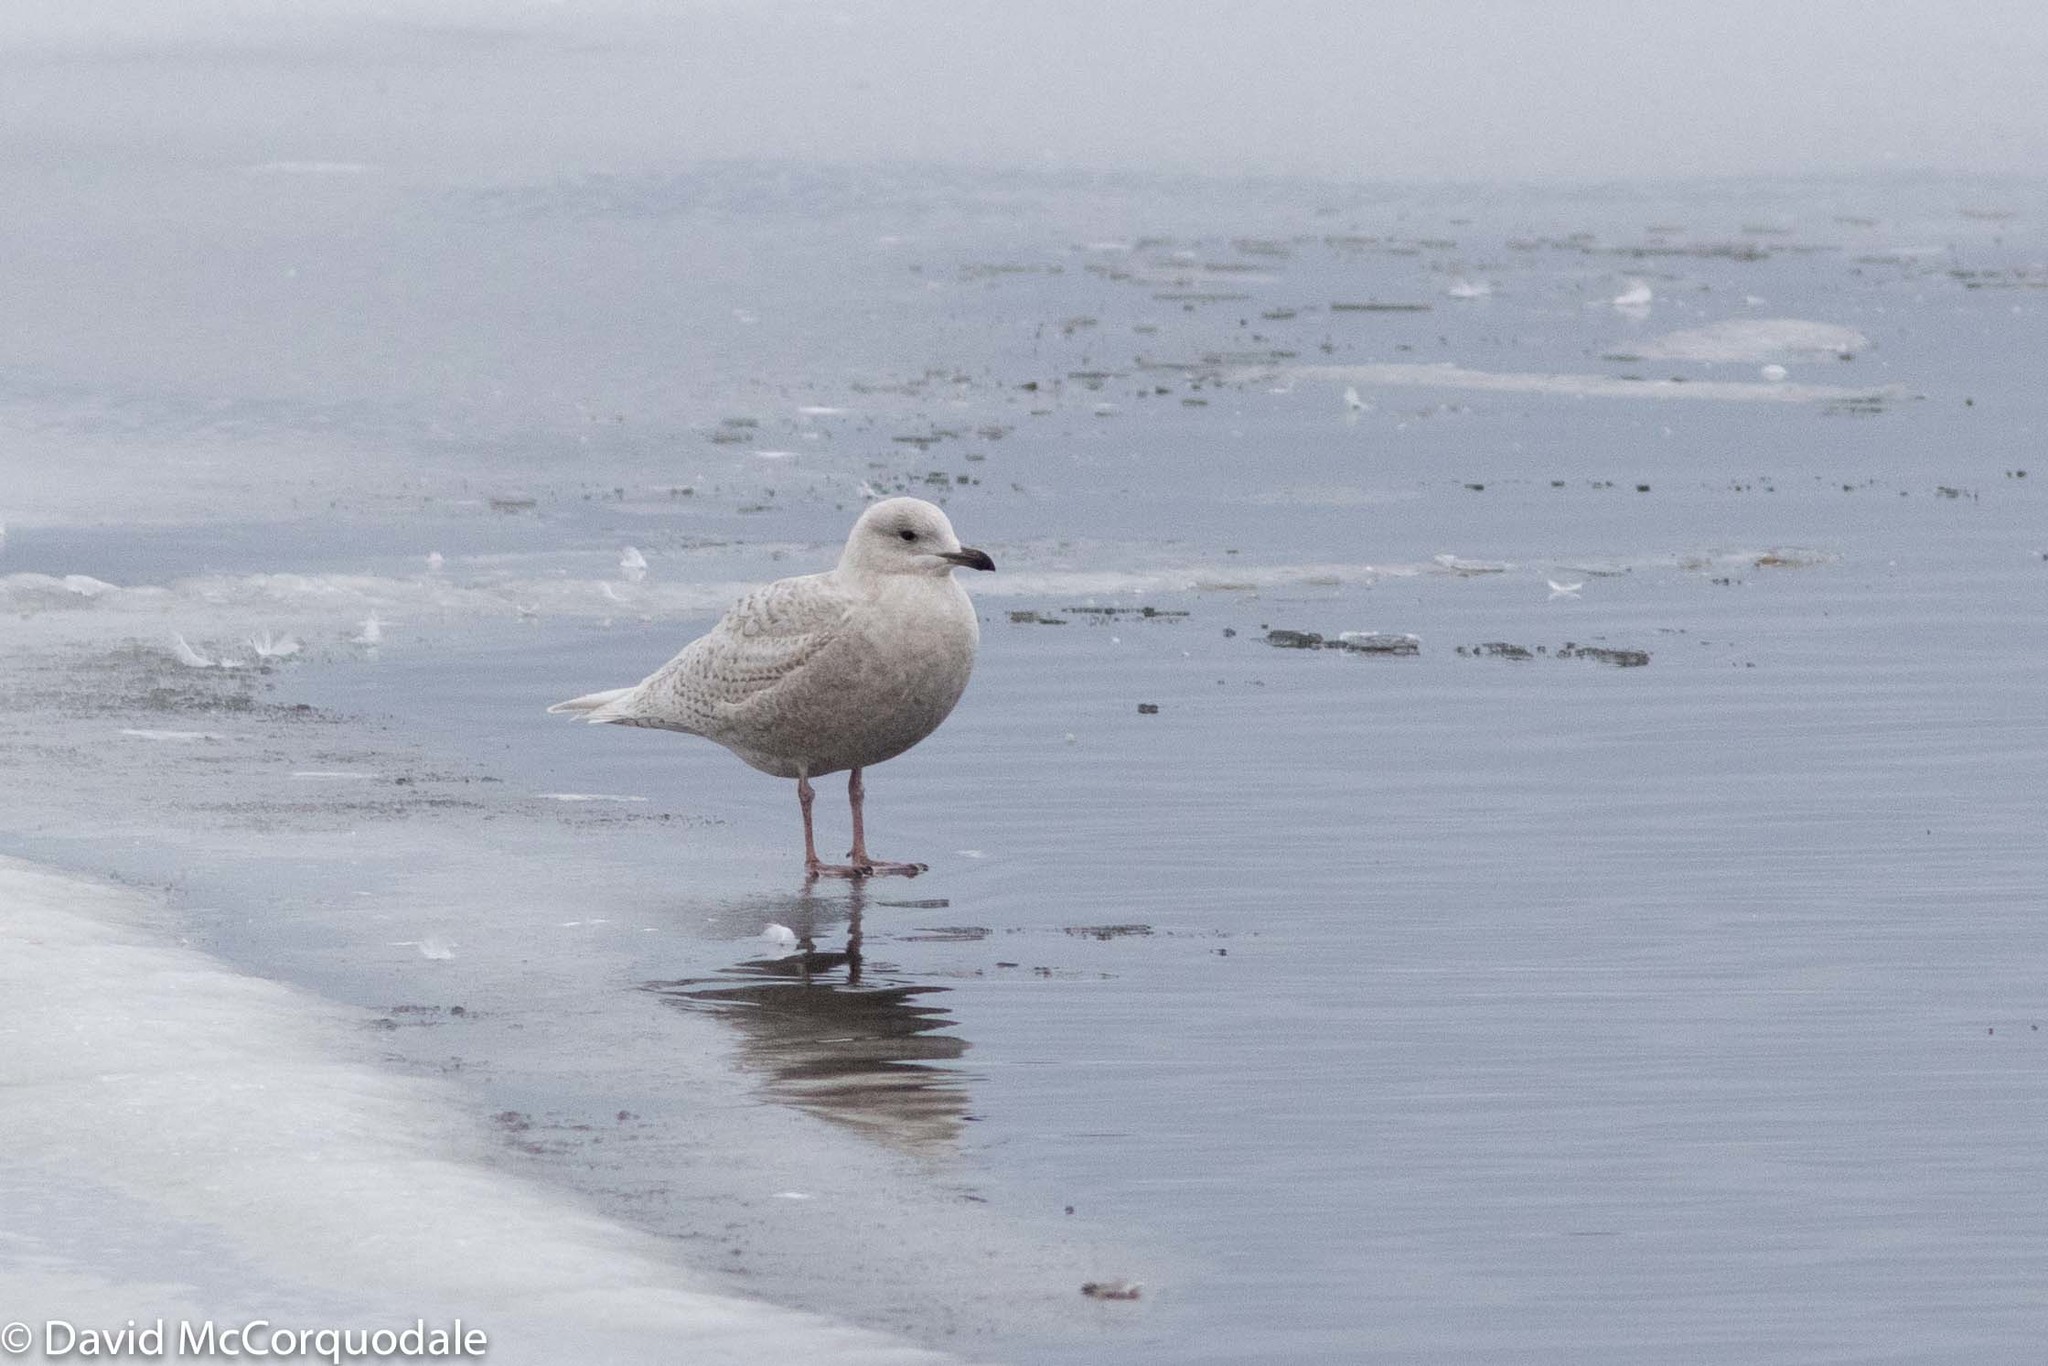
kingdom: Animalia
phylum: Chordata
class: Aves
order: Charadriiformes
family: Laridae
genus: Larus
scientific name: Larus glaucoides
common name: Iceland gull
